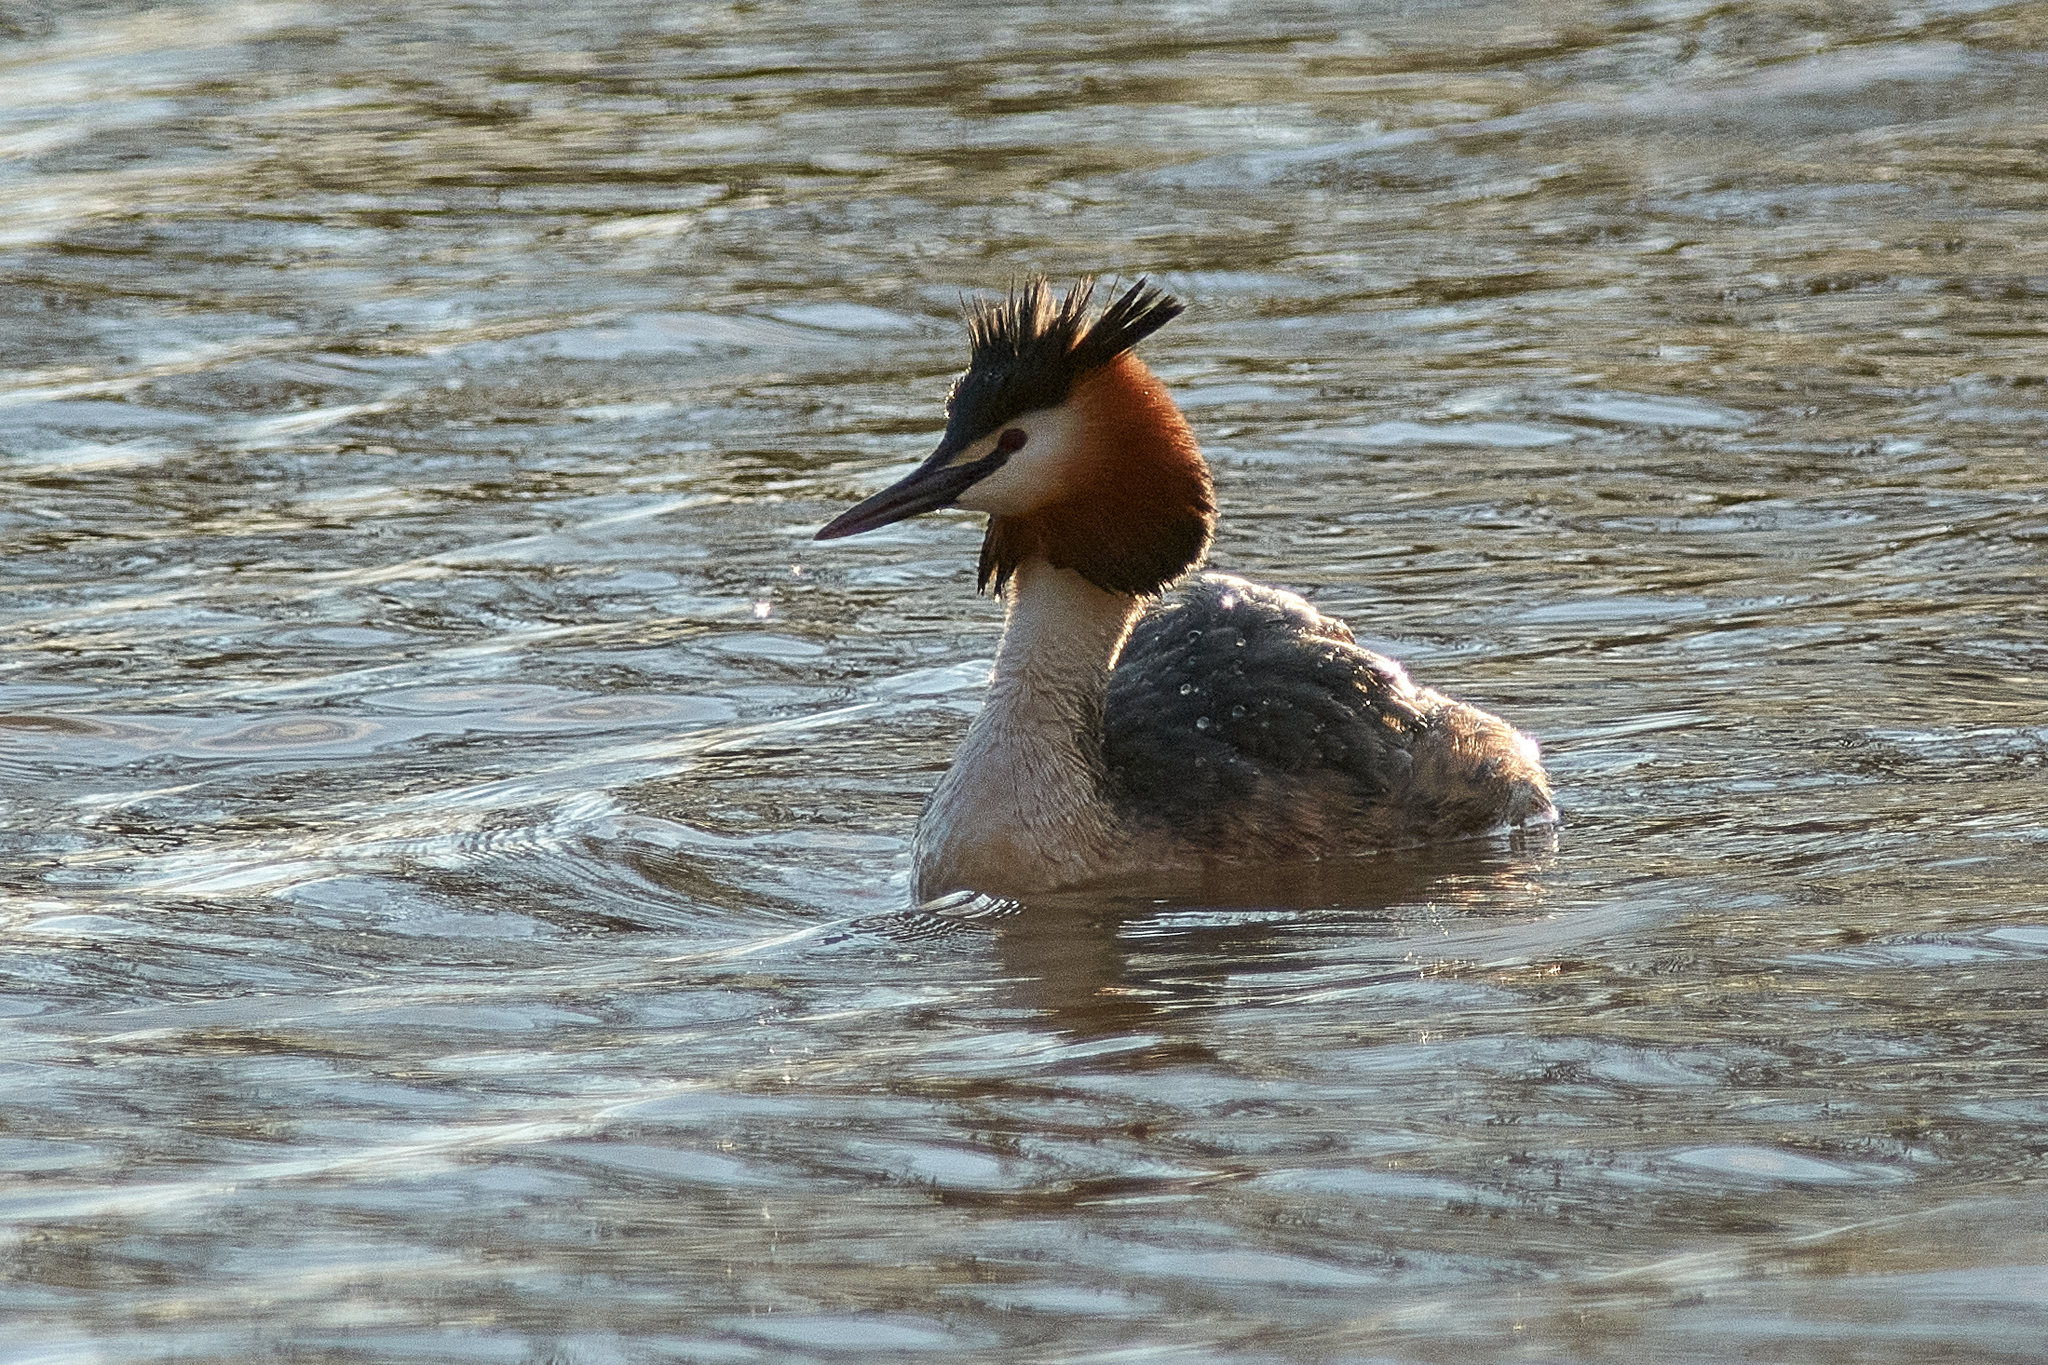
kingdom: Animalia
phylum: Chordata
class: Aves
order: Podicipediformes
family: Podicipedidae
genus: Podiceps
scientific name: Podiceps cristatus
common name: Great crested grebe
